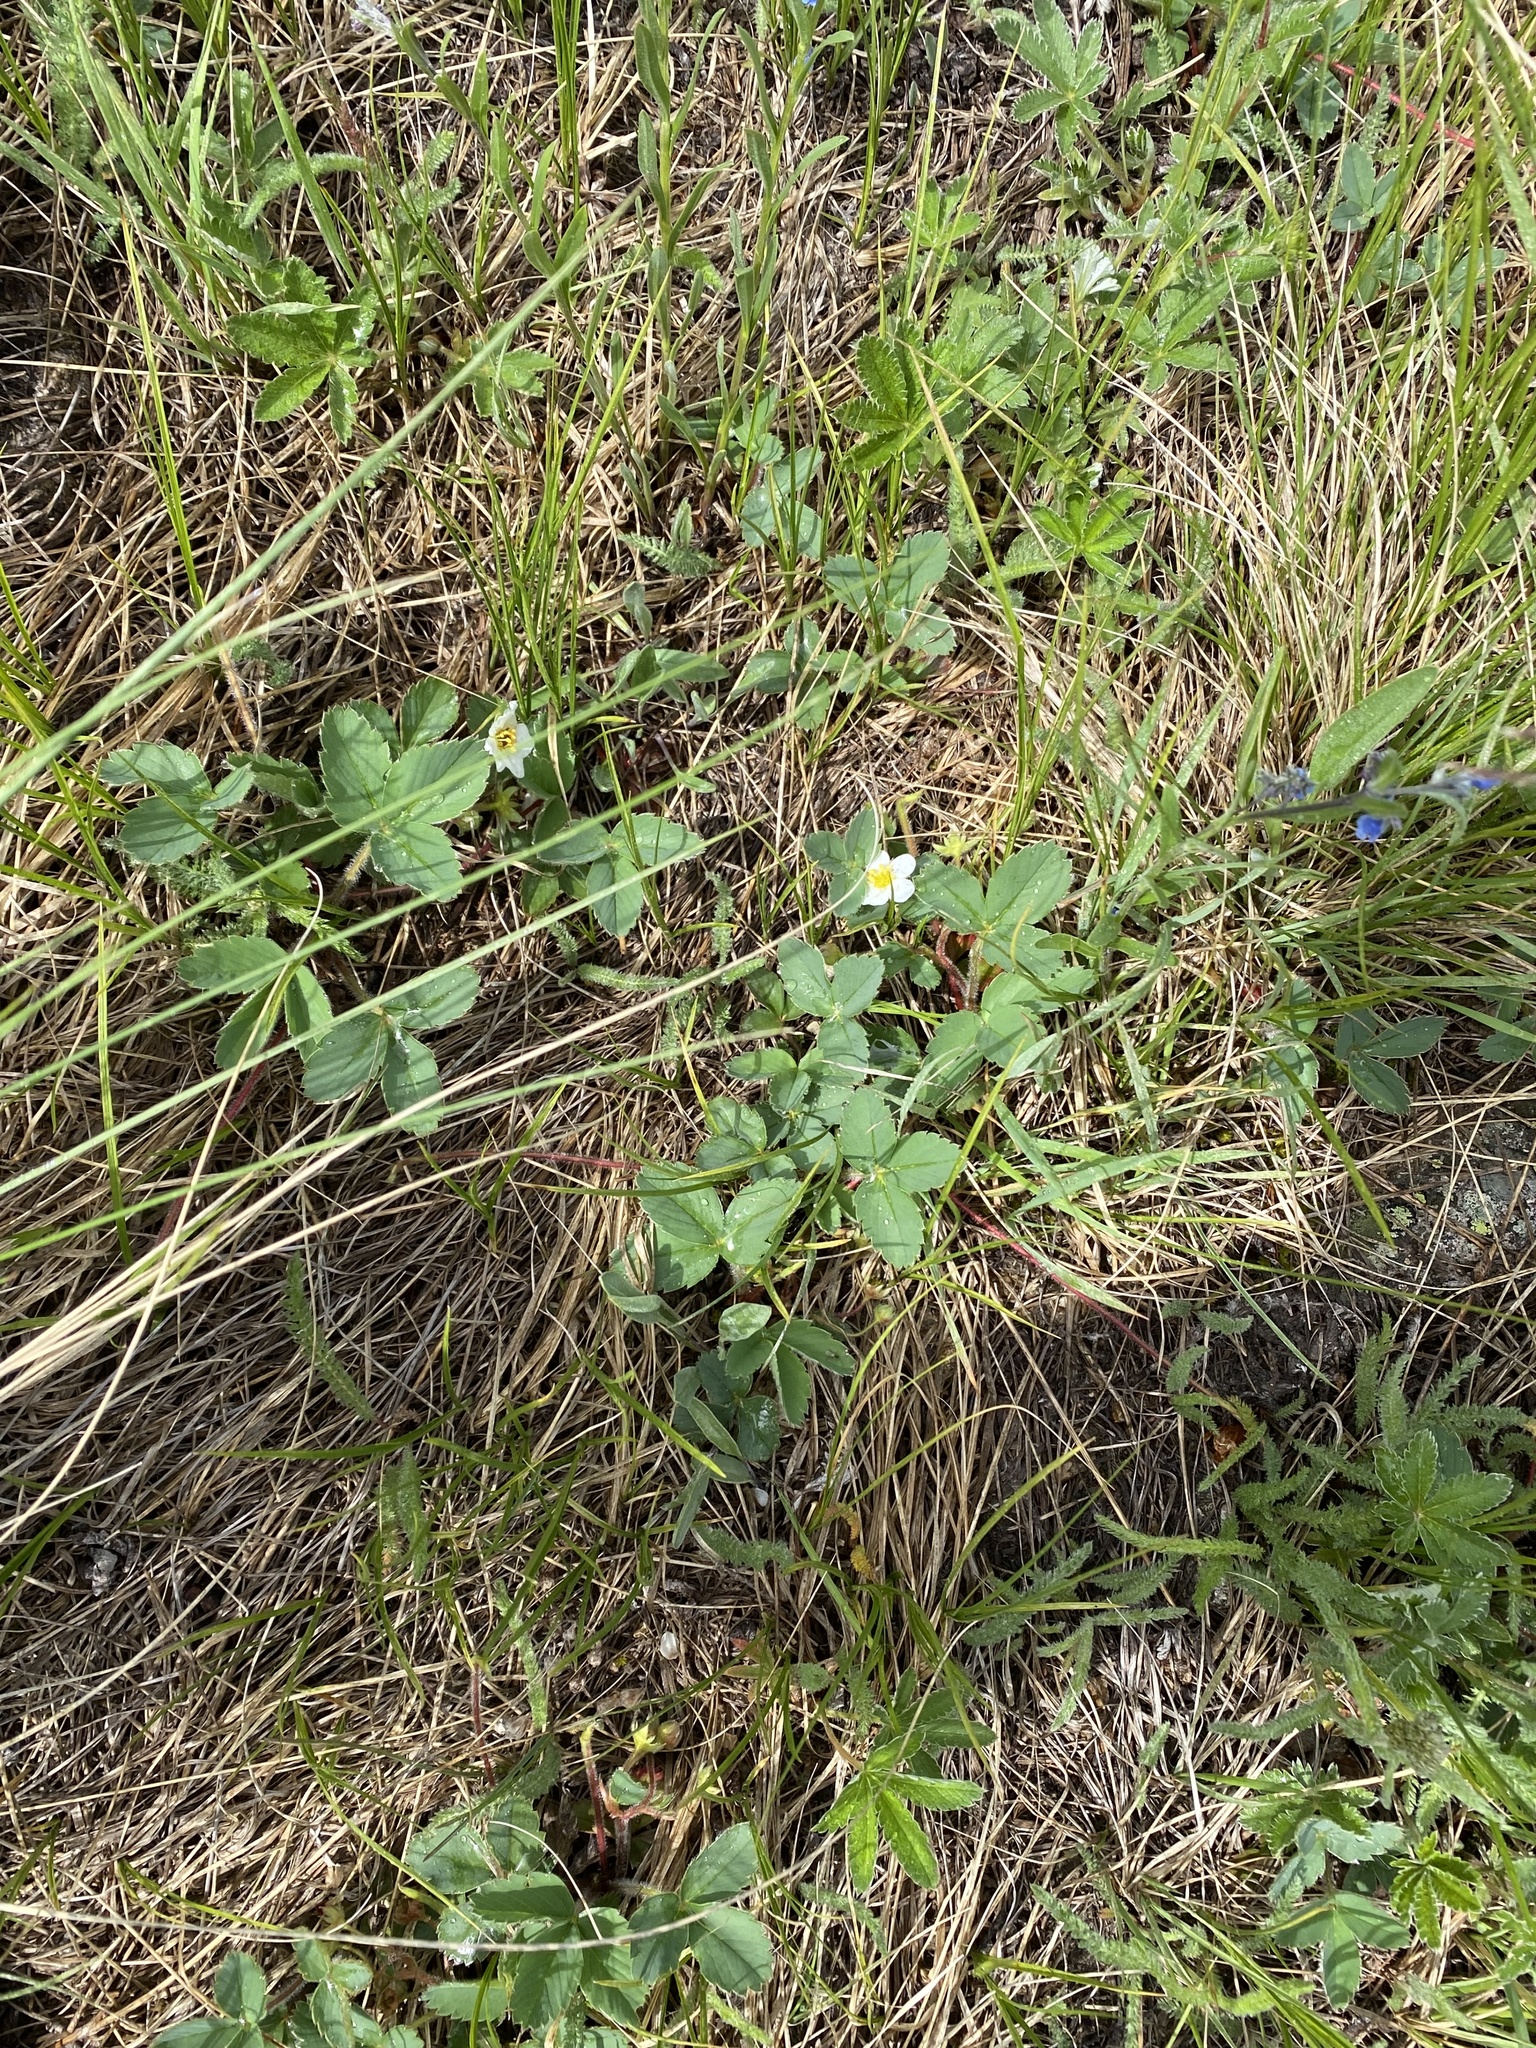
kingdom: Plantae
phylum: Tracheophyta
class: Magnoliopsida
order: Rosales
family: Rosaceae
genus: Fragaria
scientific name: Fragaria virginiana
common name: Thickleaved wild strawberry
